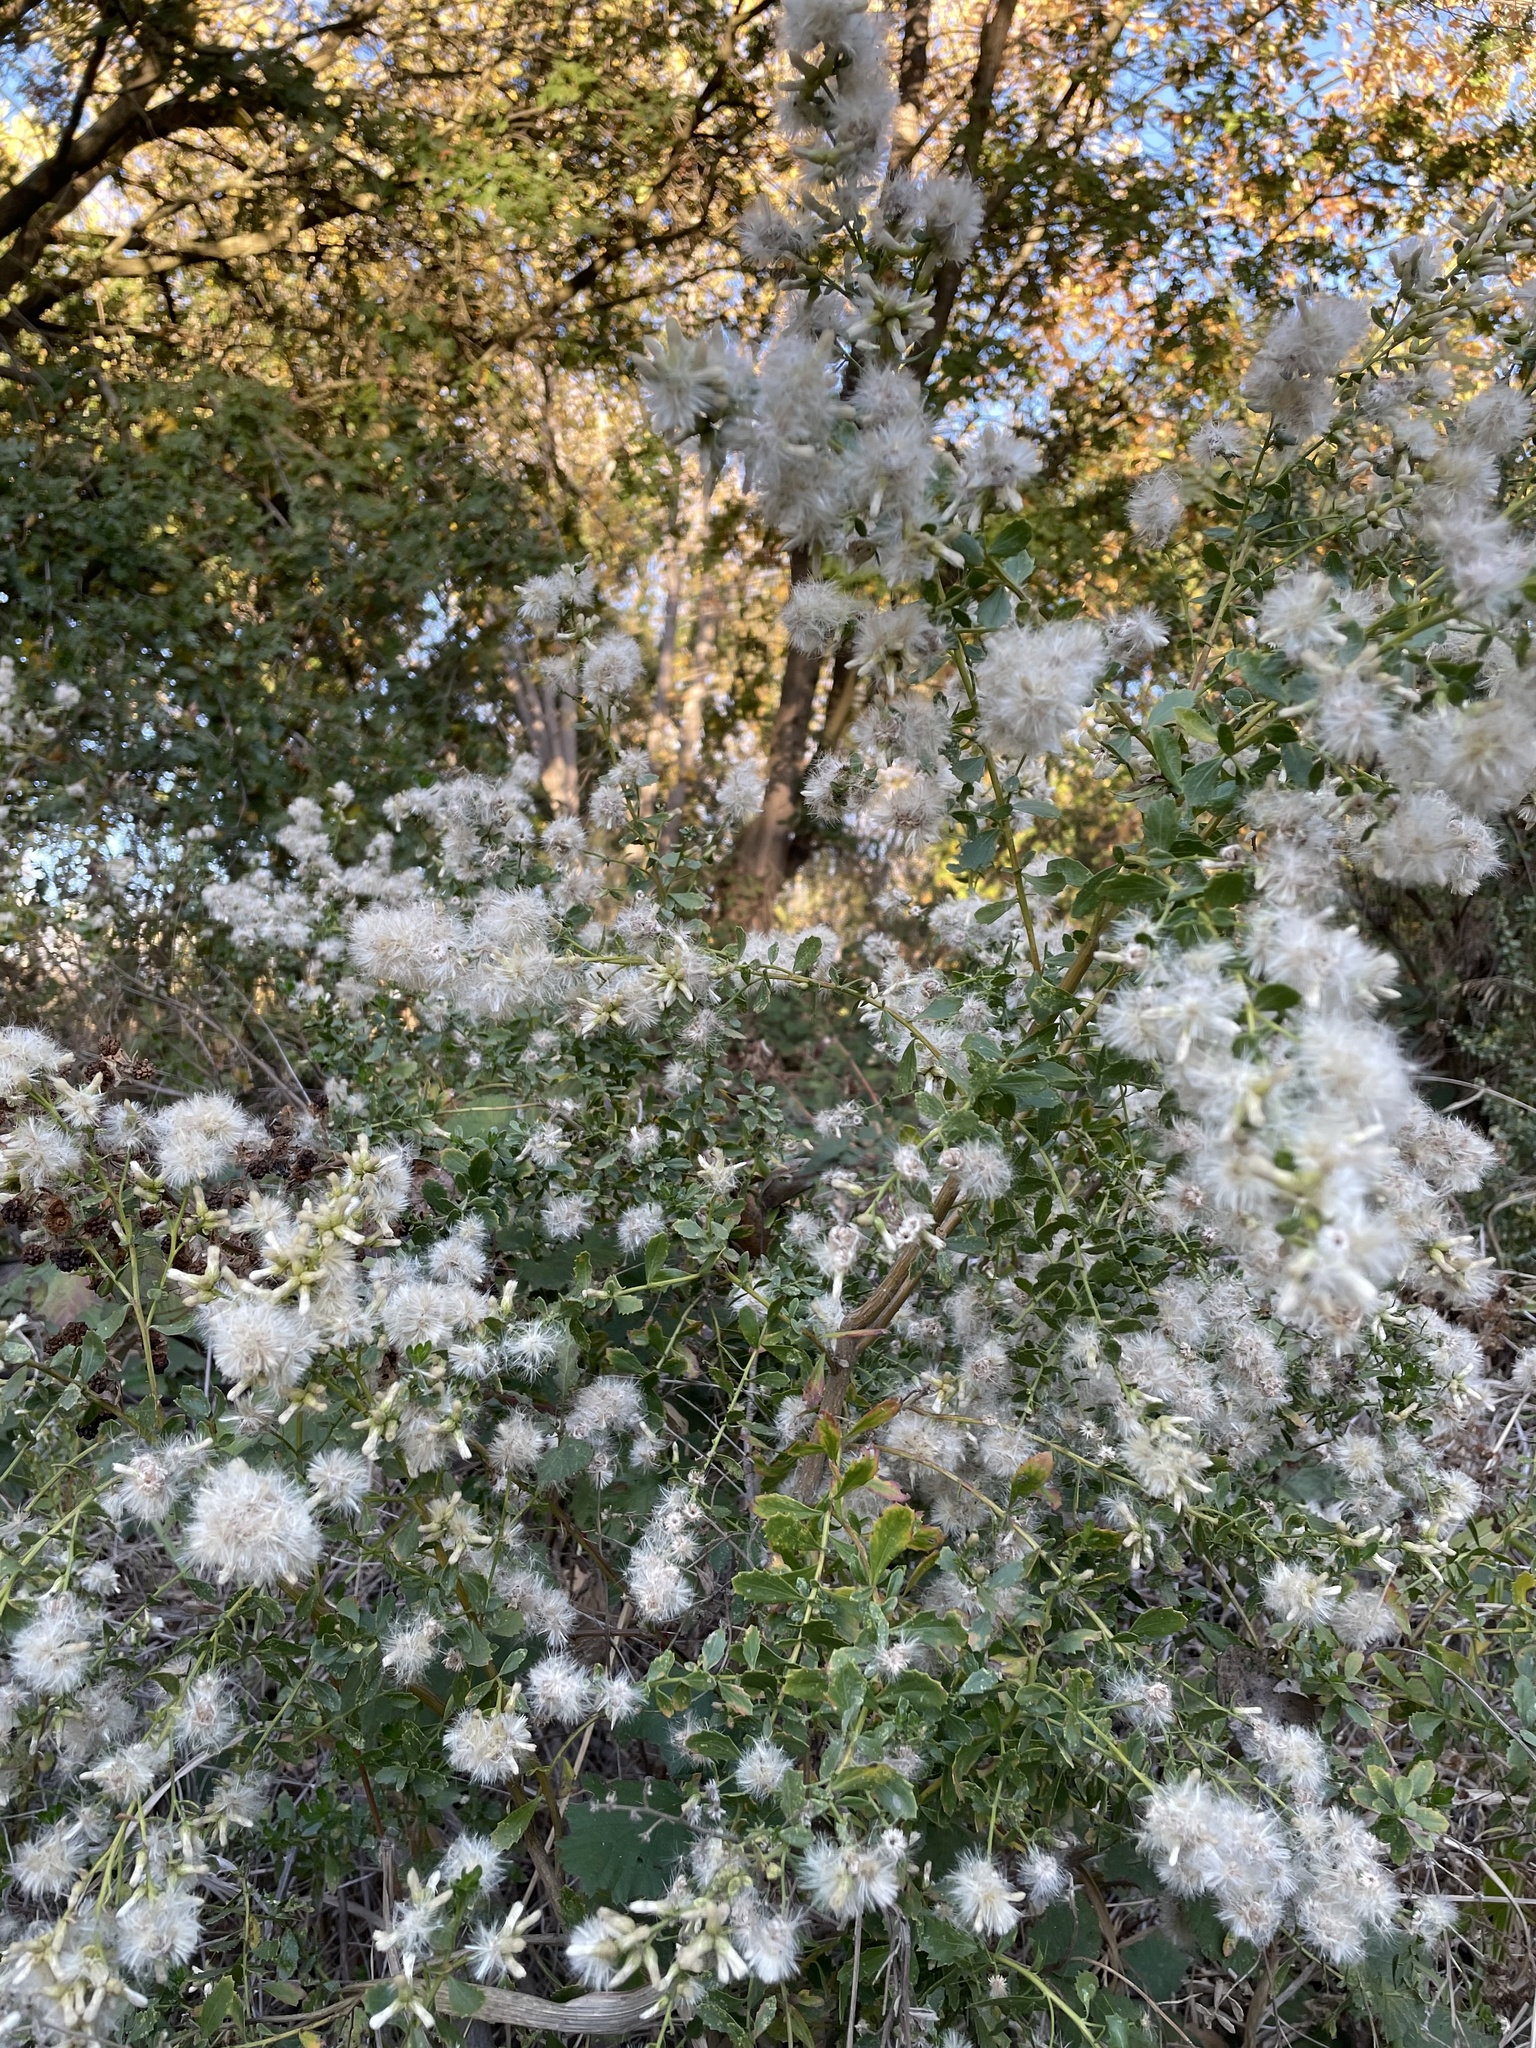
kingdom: Plantae
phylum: Tracheophyta
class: Magnoliopsida
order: Asterales
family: Asteraceae
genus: Baccharis
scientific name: Baccharis pilularis
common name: Coyotebrush
